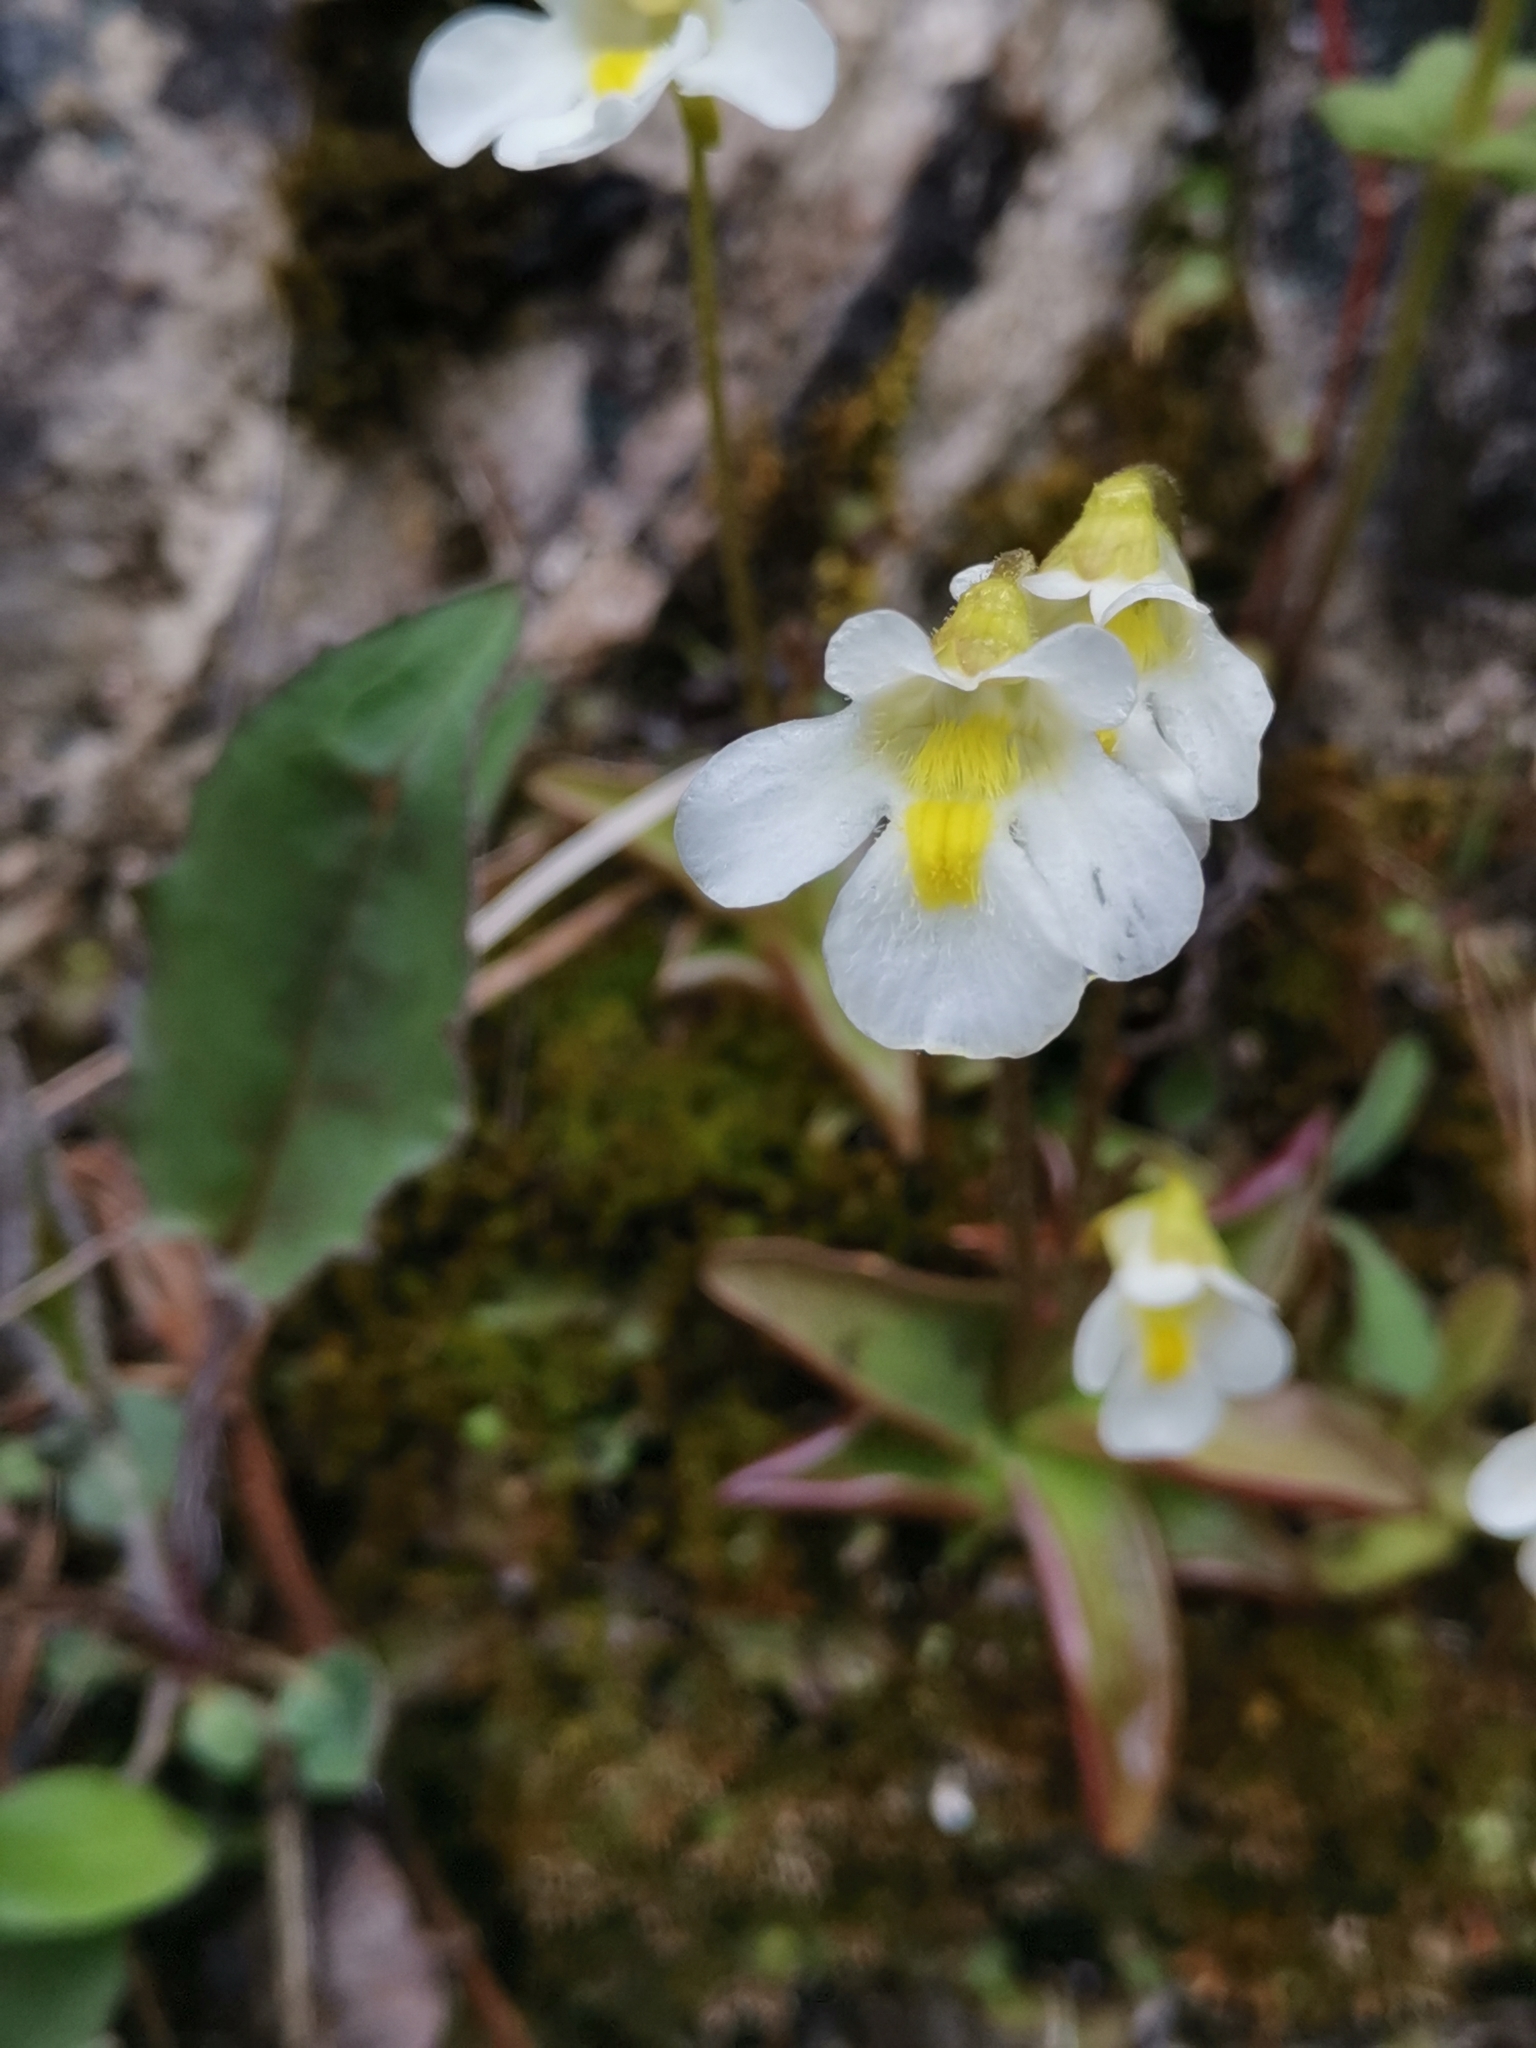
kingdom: Plantae
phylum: Tracheophyta
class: Magnoliopsida
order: Lamiales
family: Lentibulariaceae
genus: Pinguicula
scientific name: Pinguicula alpina
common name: Alpine butterwort
